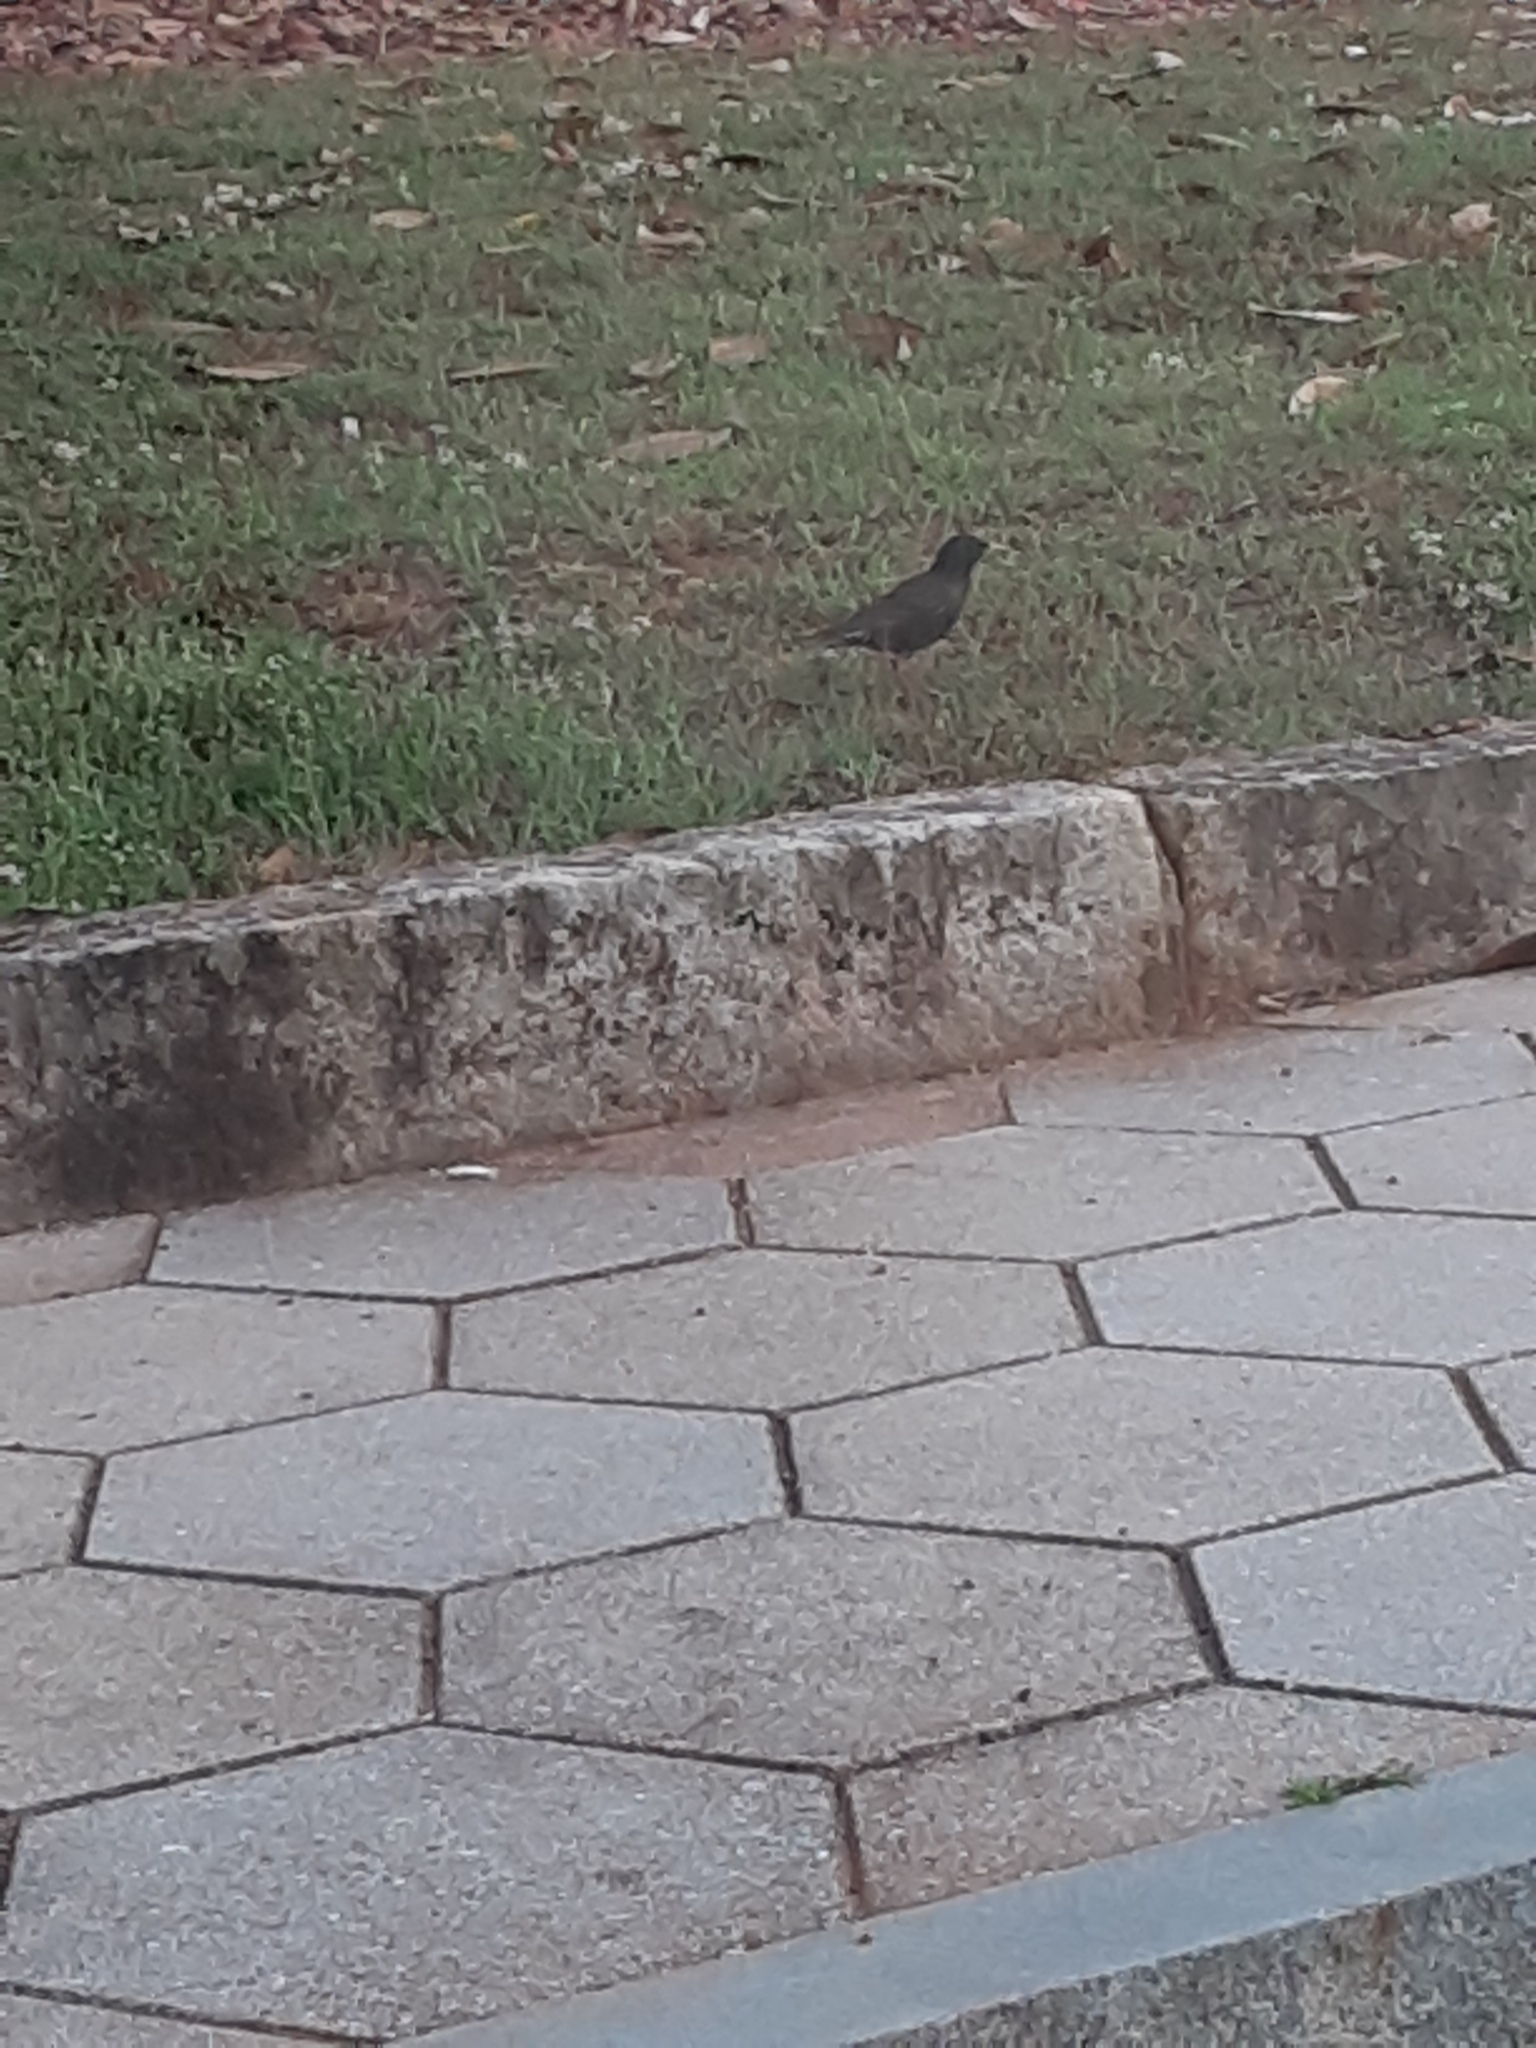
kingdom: Animalia
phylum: Chordata
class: Aves
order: Passeriformes
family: Sturnidae
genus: Sturnus
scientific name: Sturnus vulgaris
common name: Common starling
